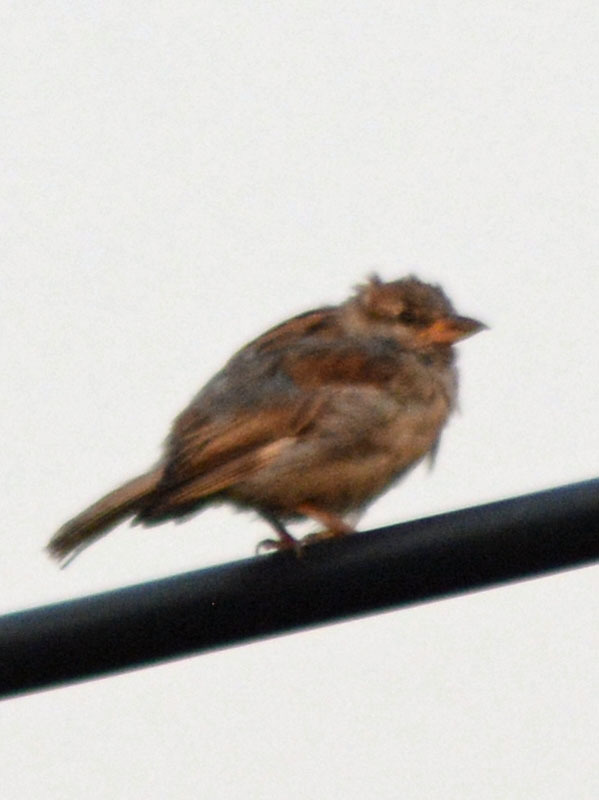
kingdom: Animalia
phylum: Chordata
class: Aves
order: Passeriformes
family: Passeridae
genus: Passer
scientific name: Passer domesticus
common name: House sparrow
